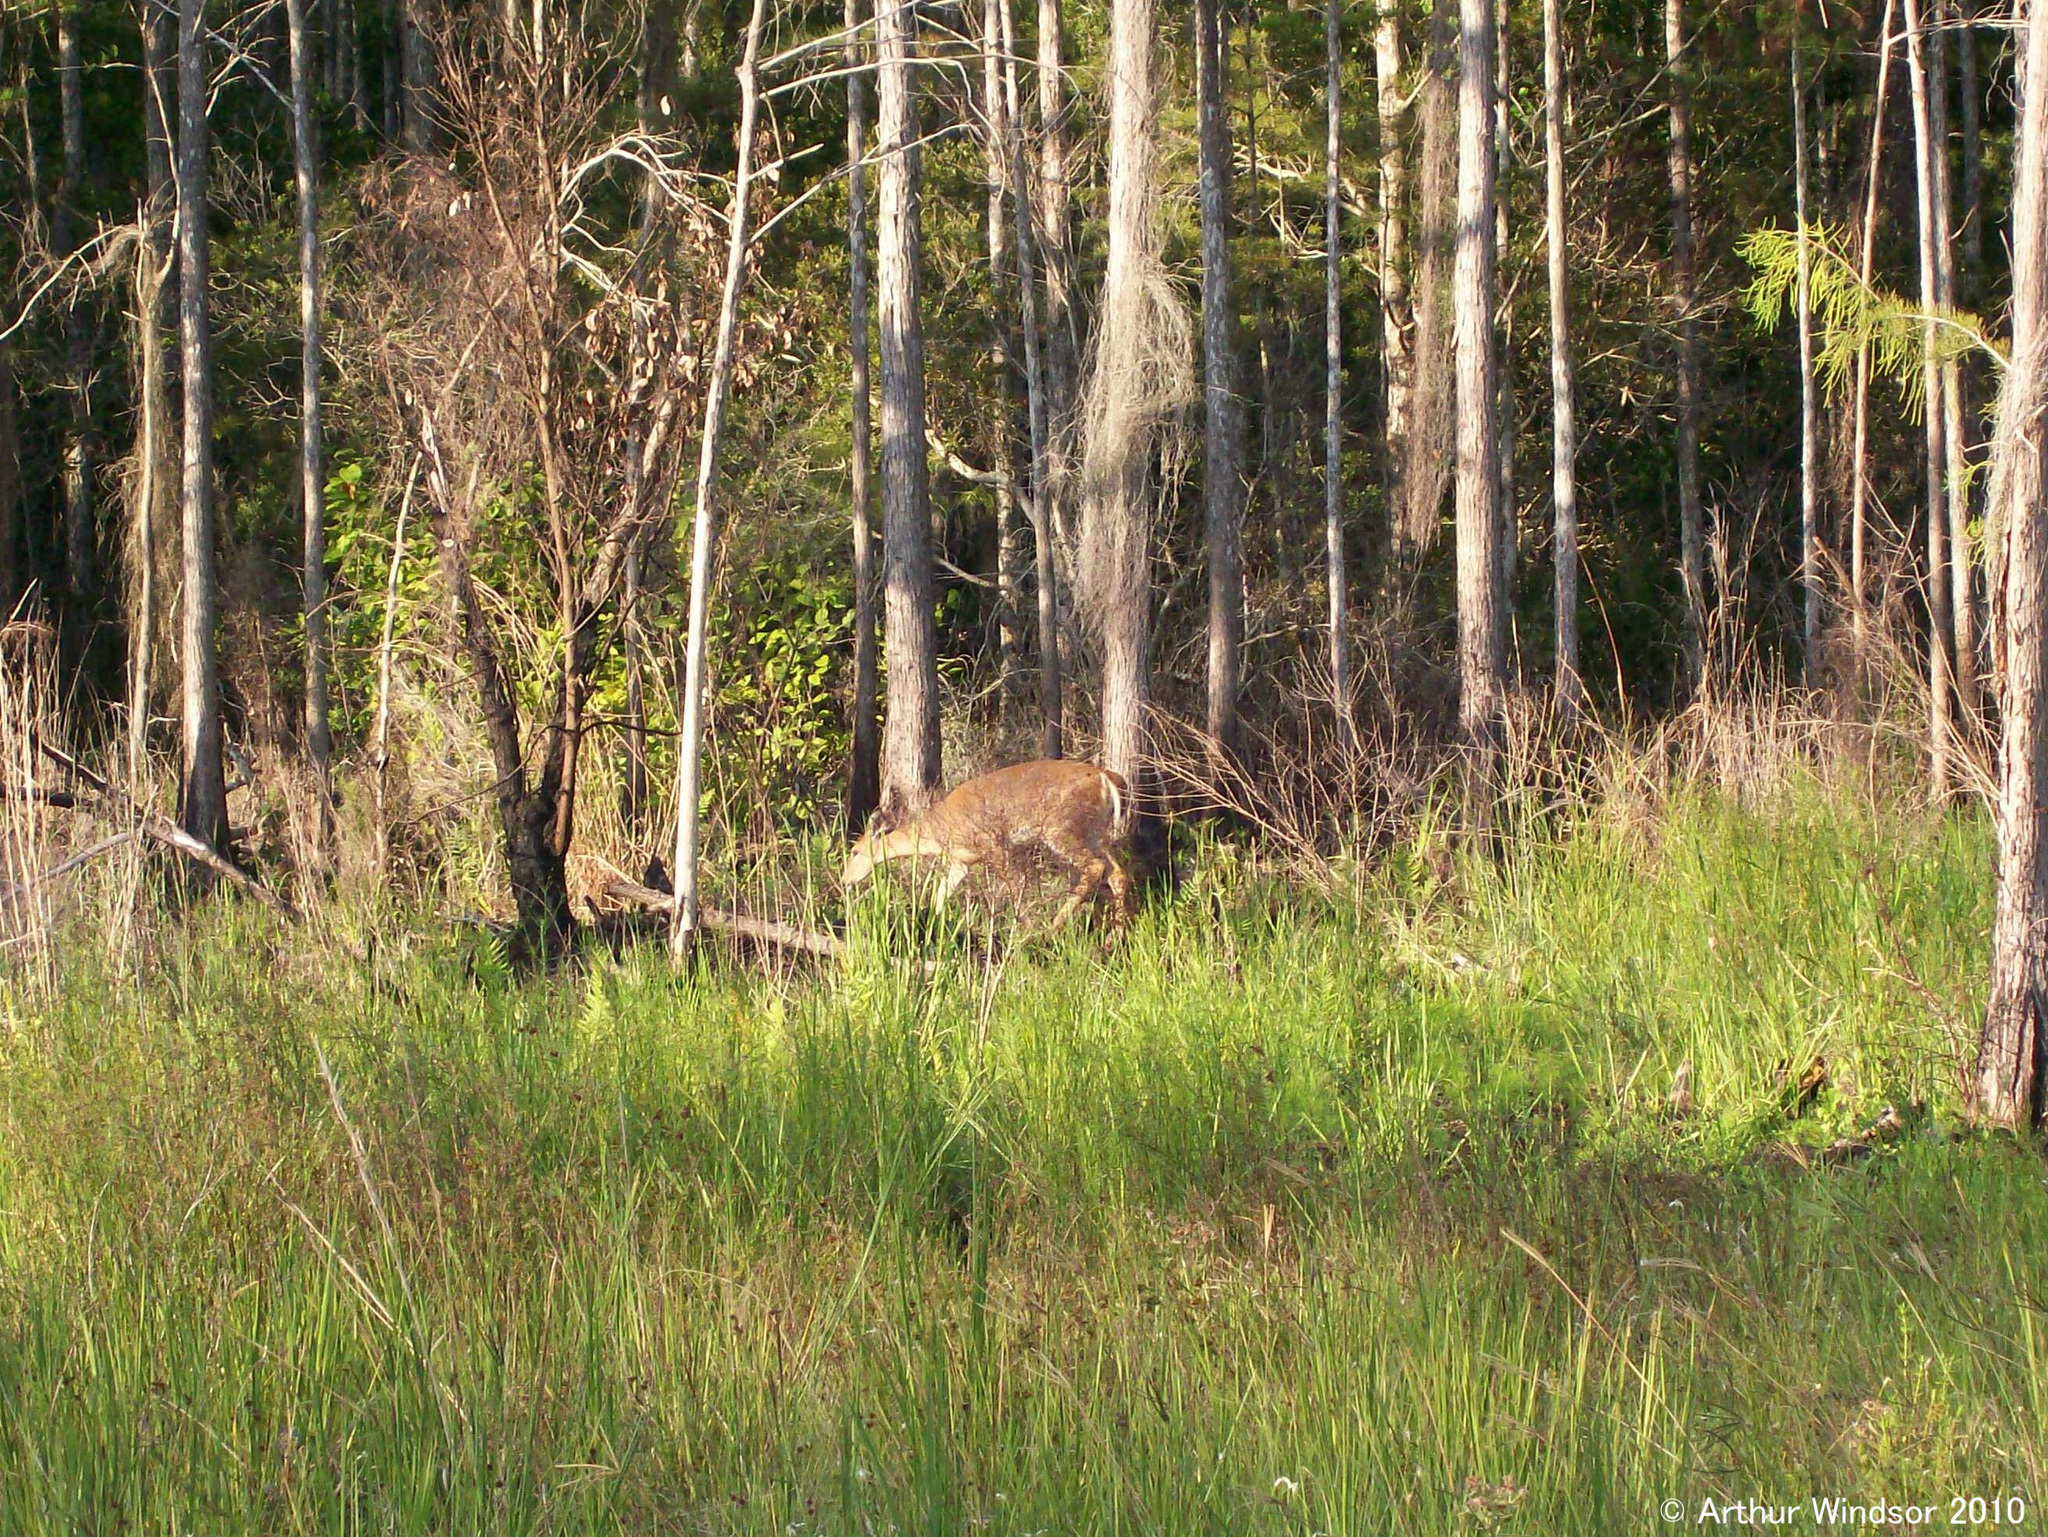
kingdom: Animalia
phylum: Chordata
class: Mammalia
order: Artiodactyla
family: Cervidae
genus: Odocoileus
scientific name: Odocoileus virginianus
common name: White-tailed deer
